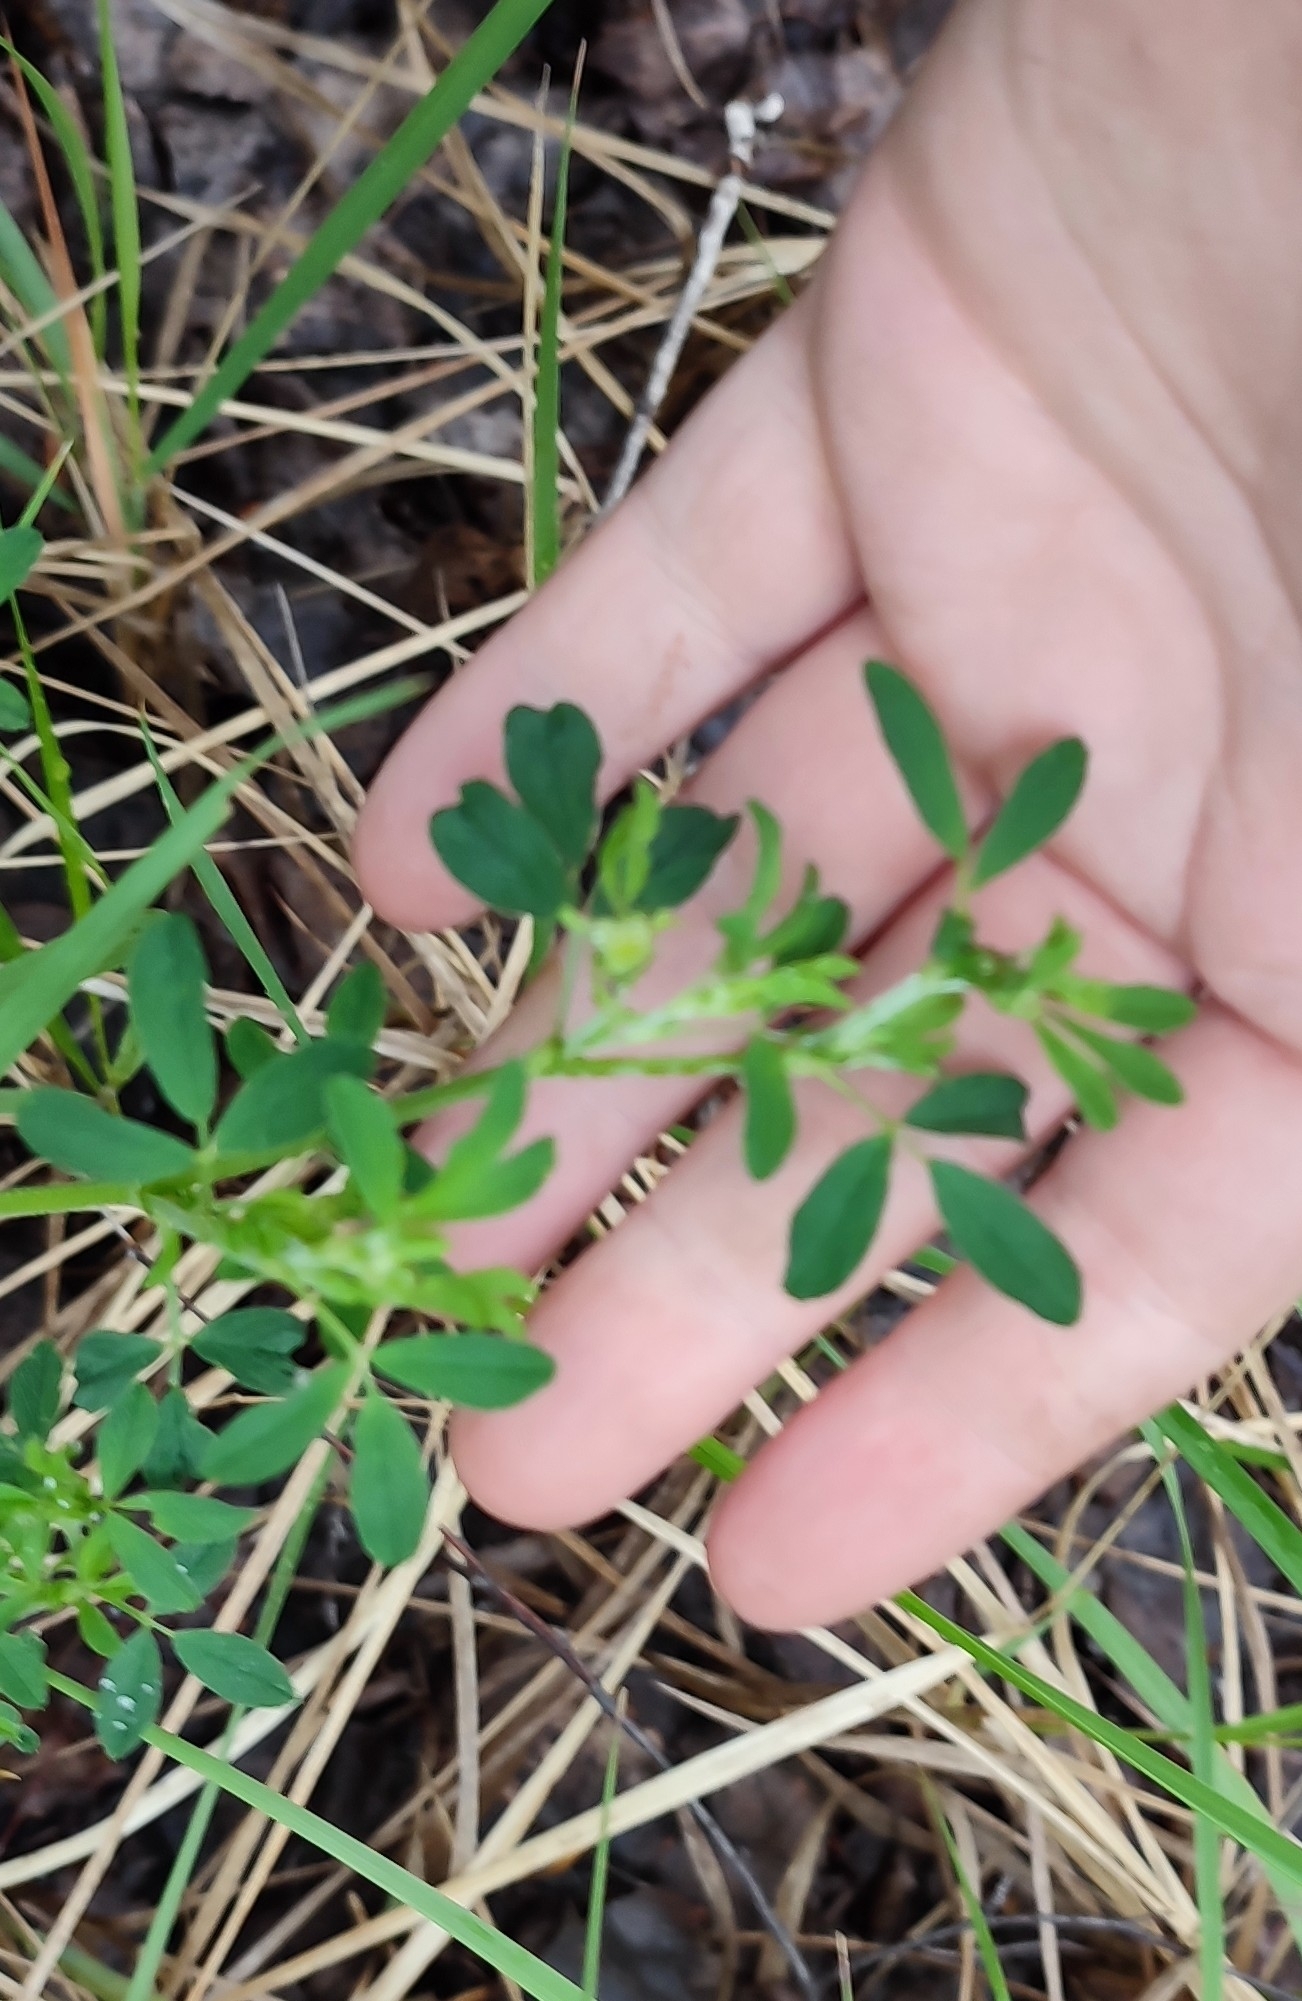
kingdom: Plantae
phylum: Tracheophyta
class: Magnoliopsida
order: Fabales
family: Fabaceae
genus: Medicago
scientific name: Medicago falcata
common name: Sickle medick
